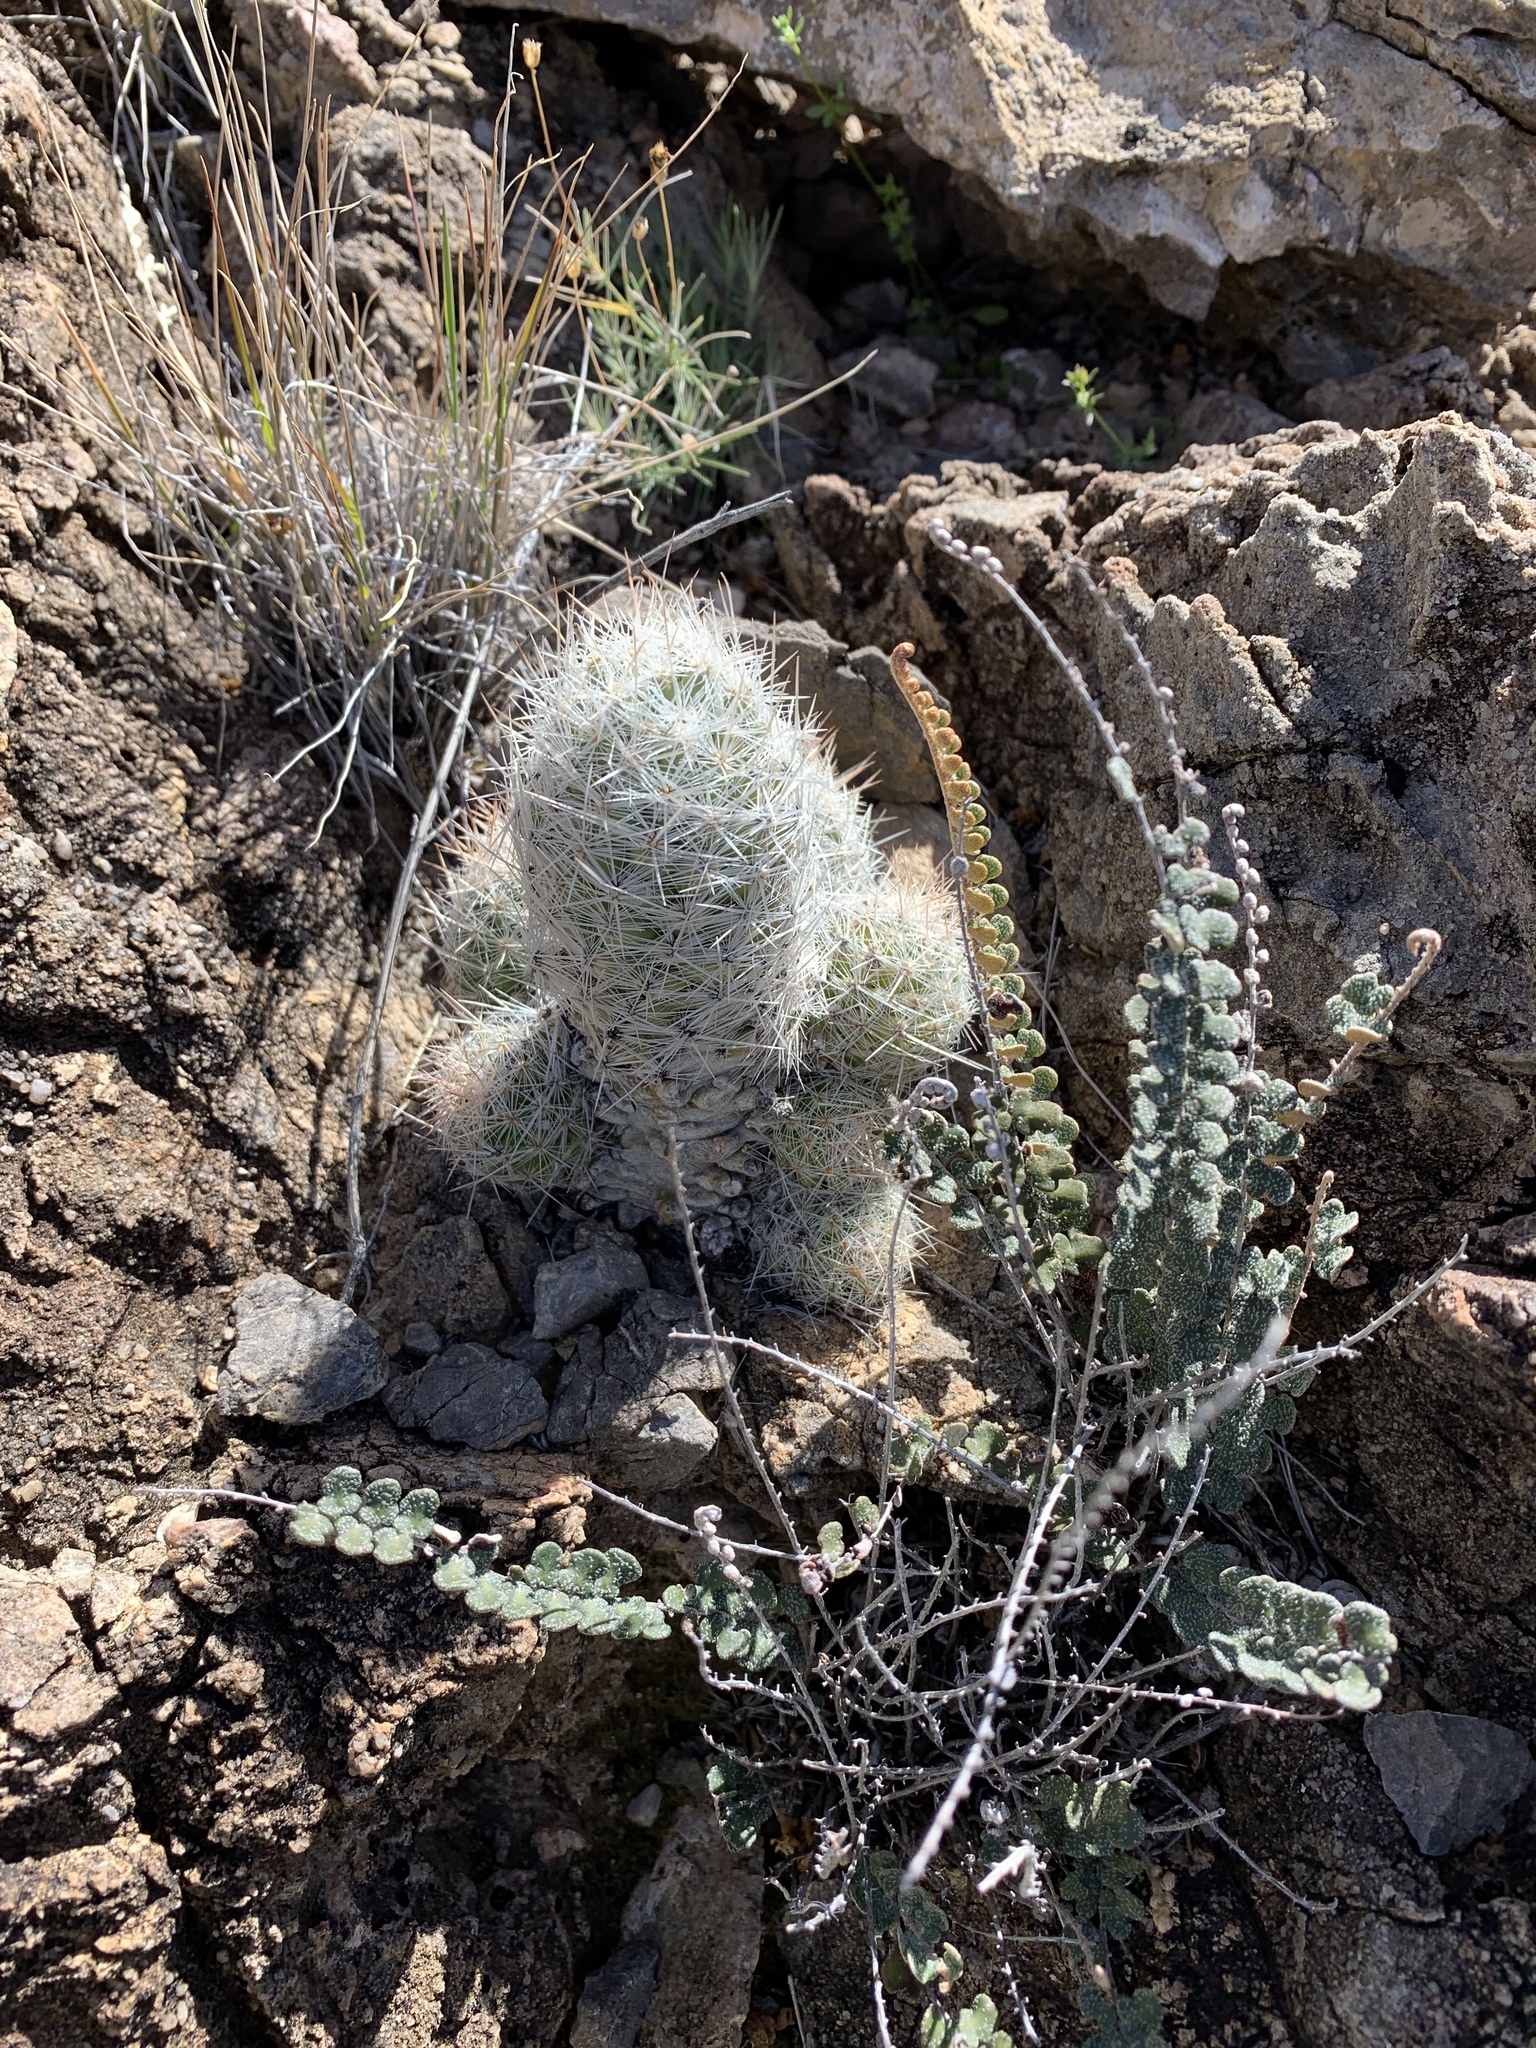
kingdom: Plantae
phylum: Tracheophyta
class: Magnoliopsida
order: Caryophyllales
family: Cactaceae
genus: Pelecyphora
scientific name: Pelecyphora tuberculosa
